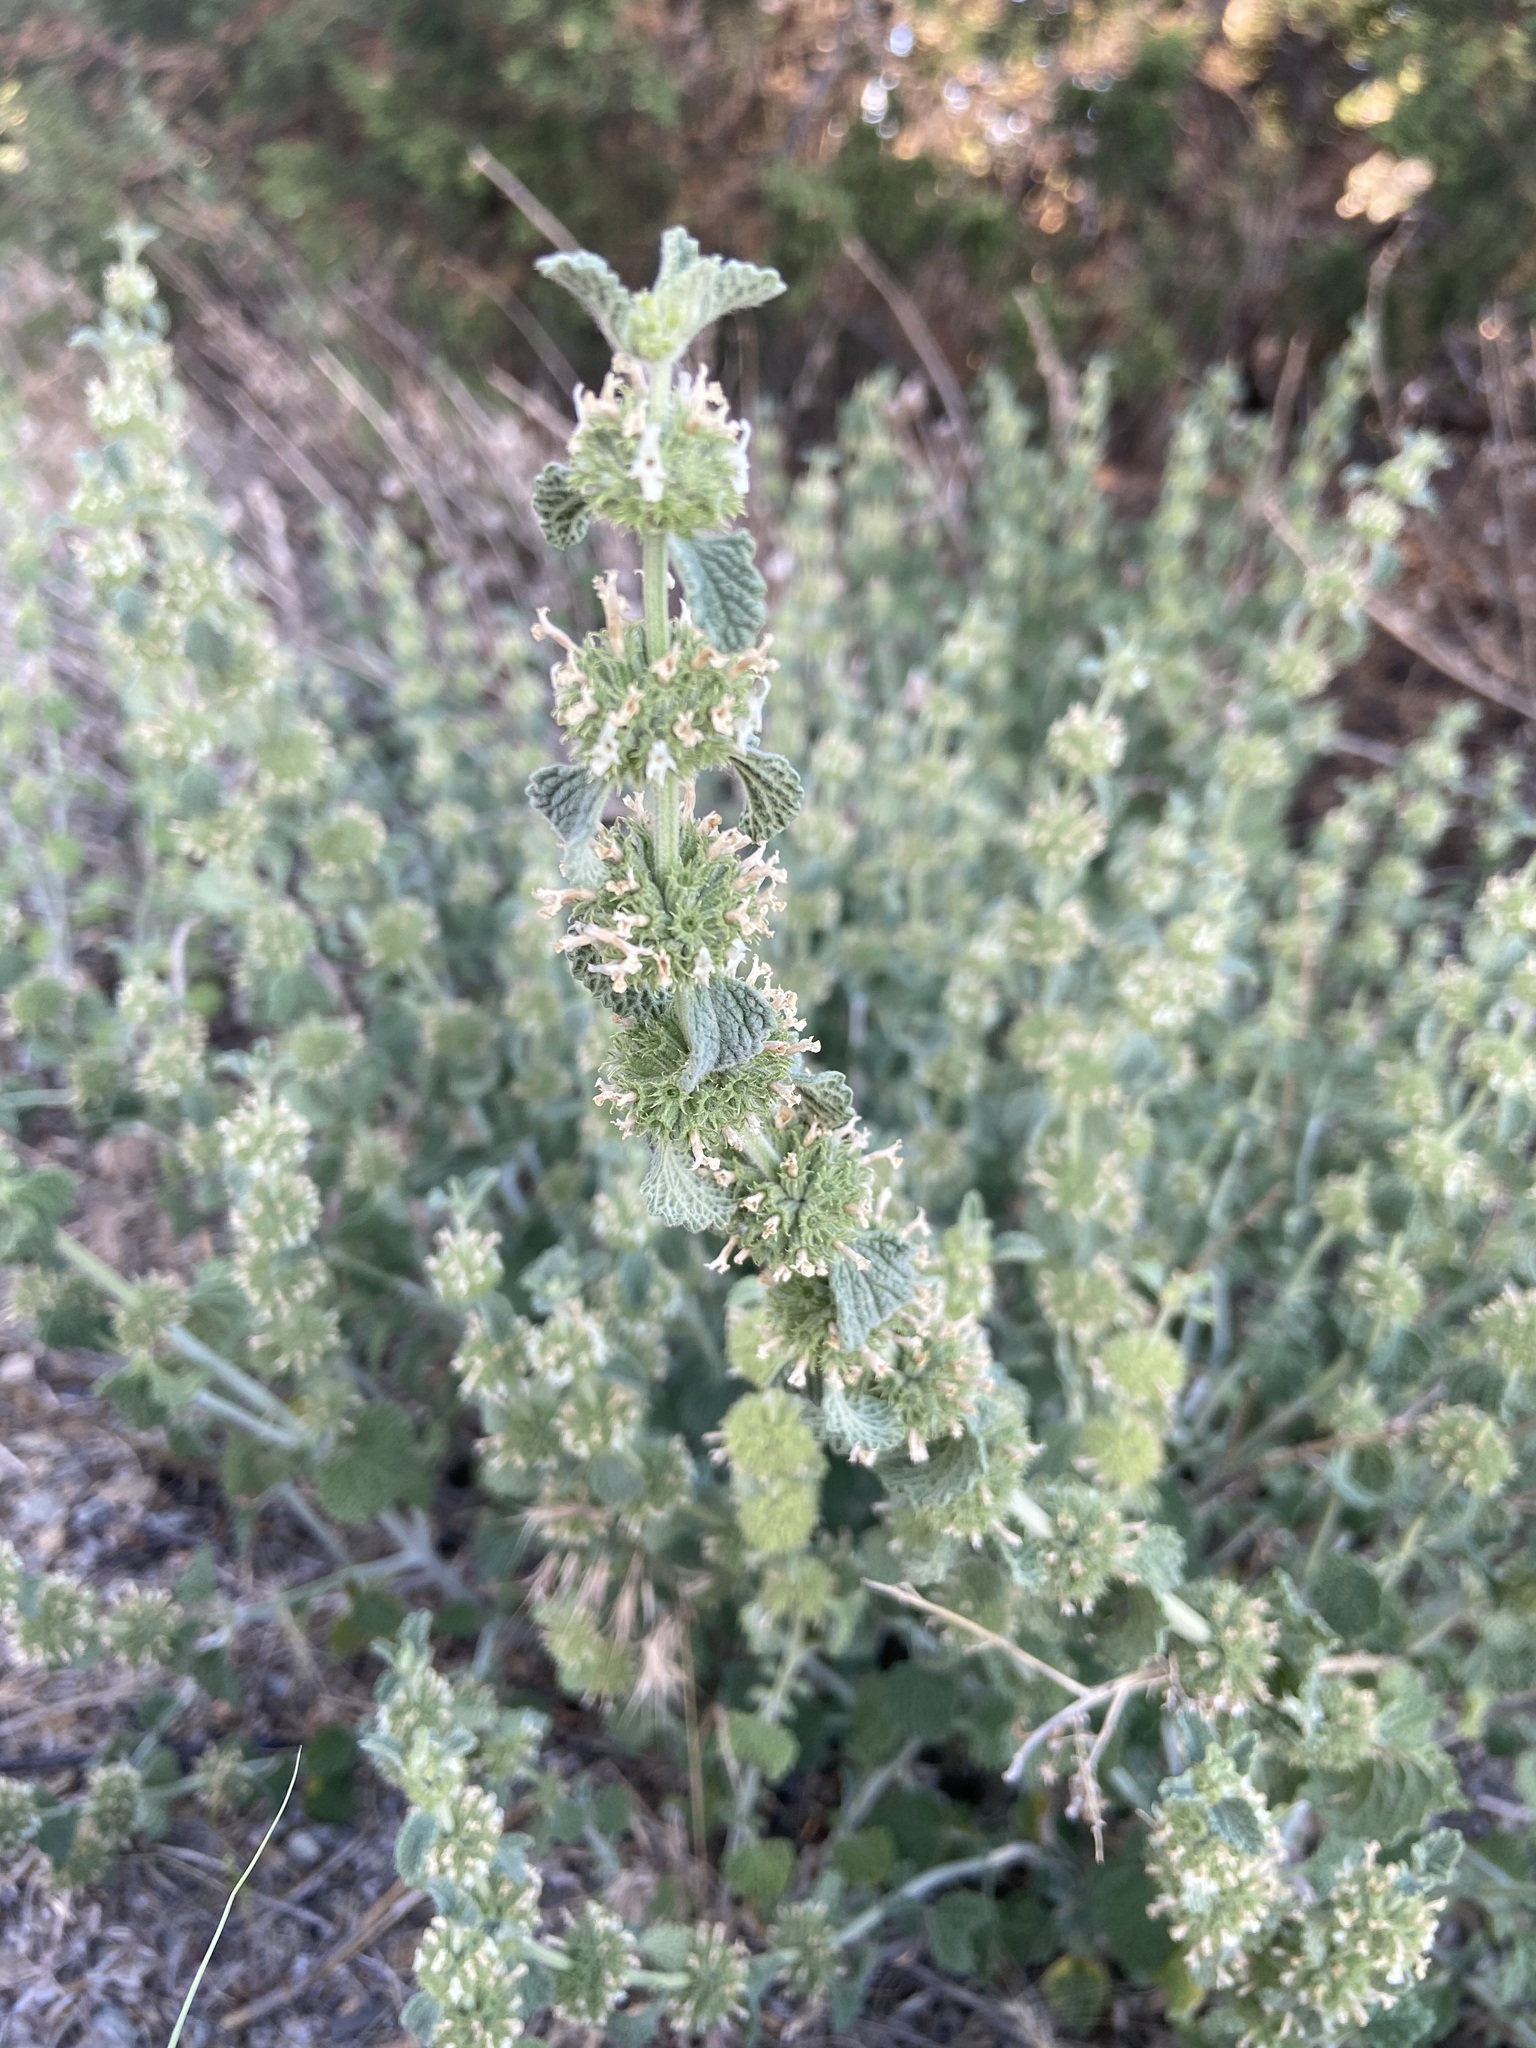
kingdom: Plantae
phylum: Tracheophyta
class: Magnoliopsida
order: Lamiales
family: Lamiaceae
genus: Marrubium
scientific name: Marrubium vulgare
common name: Horehound
